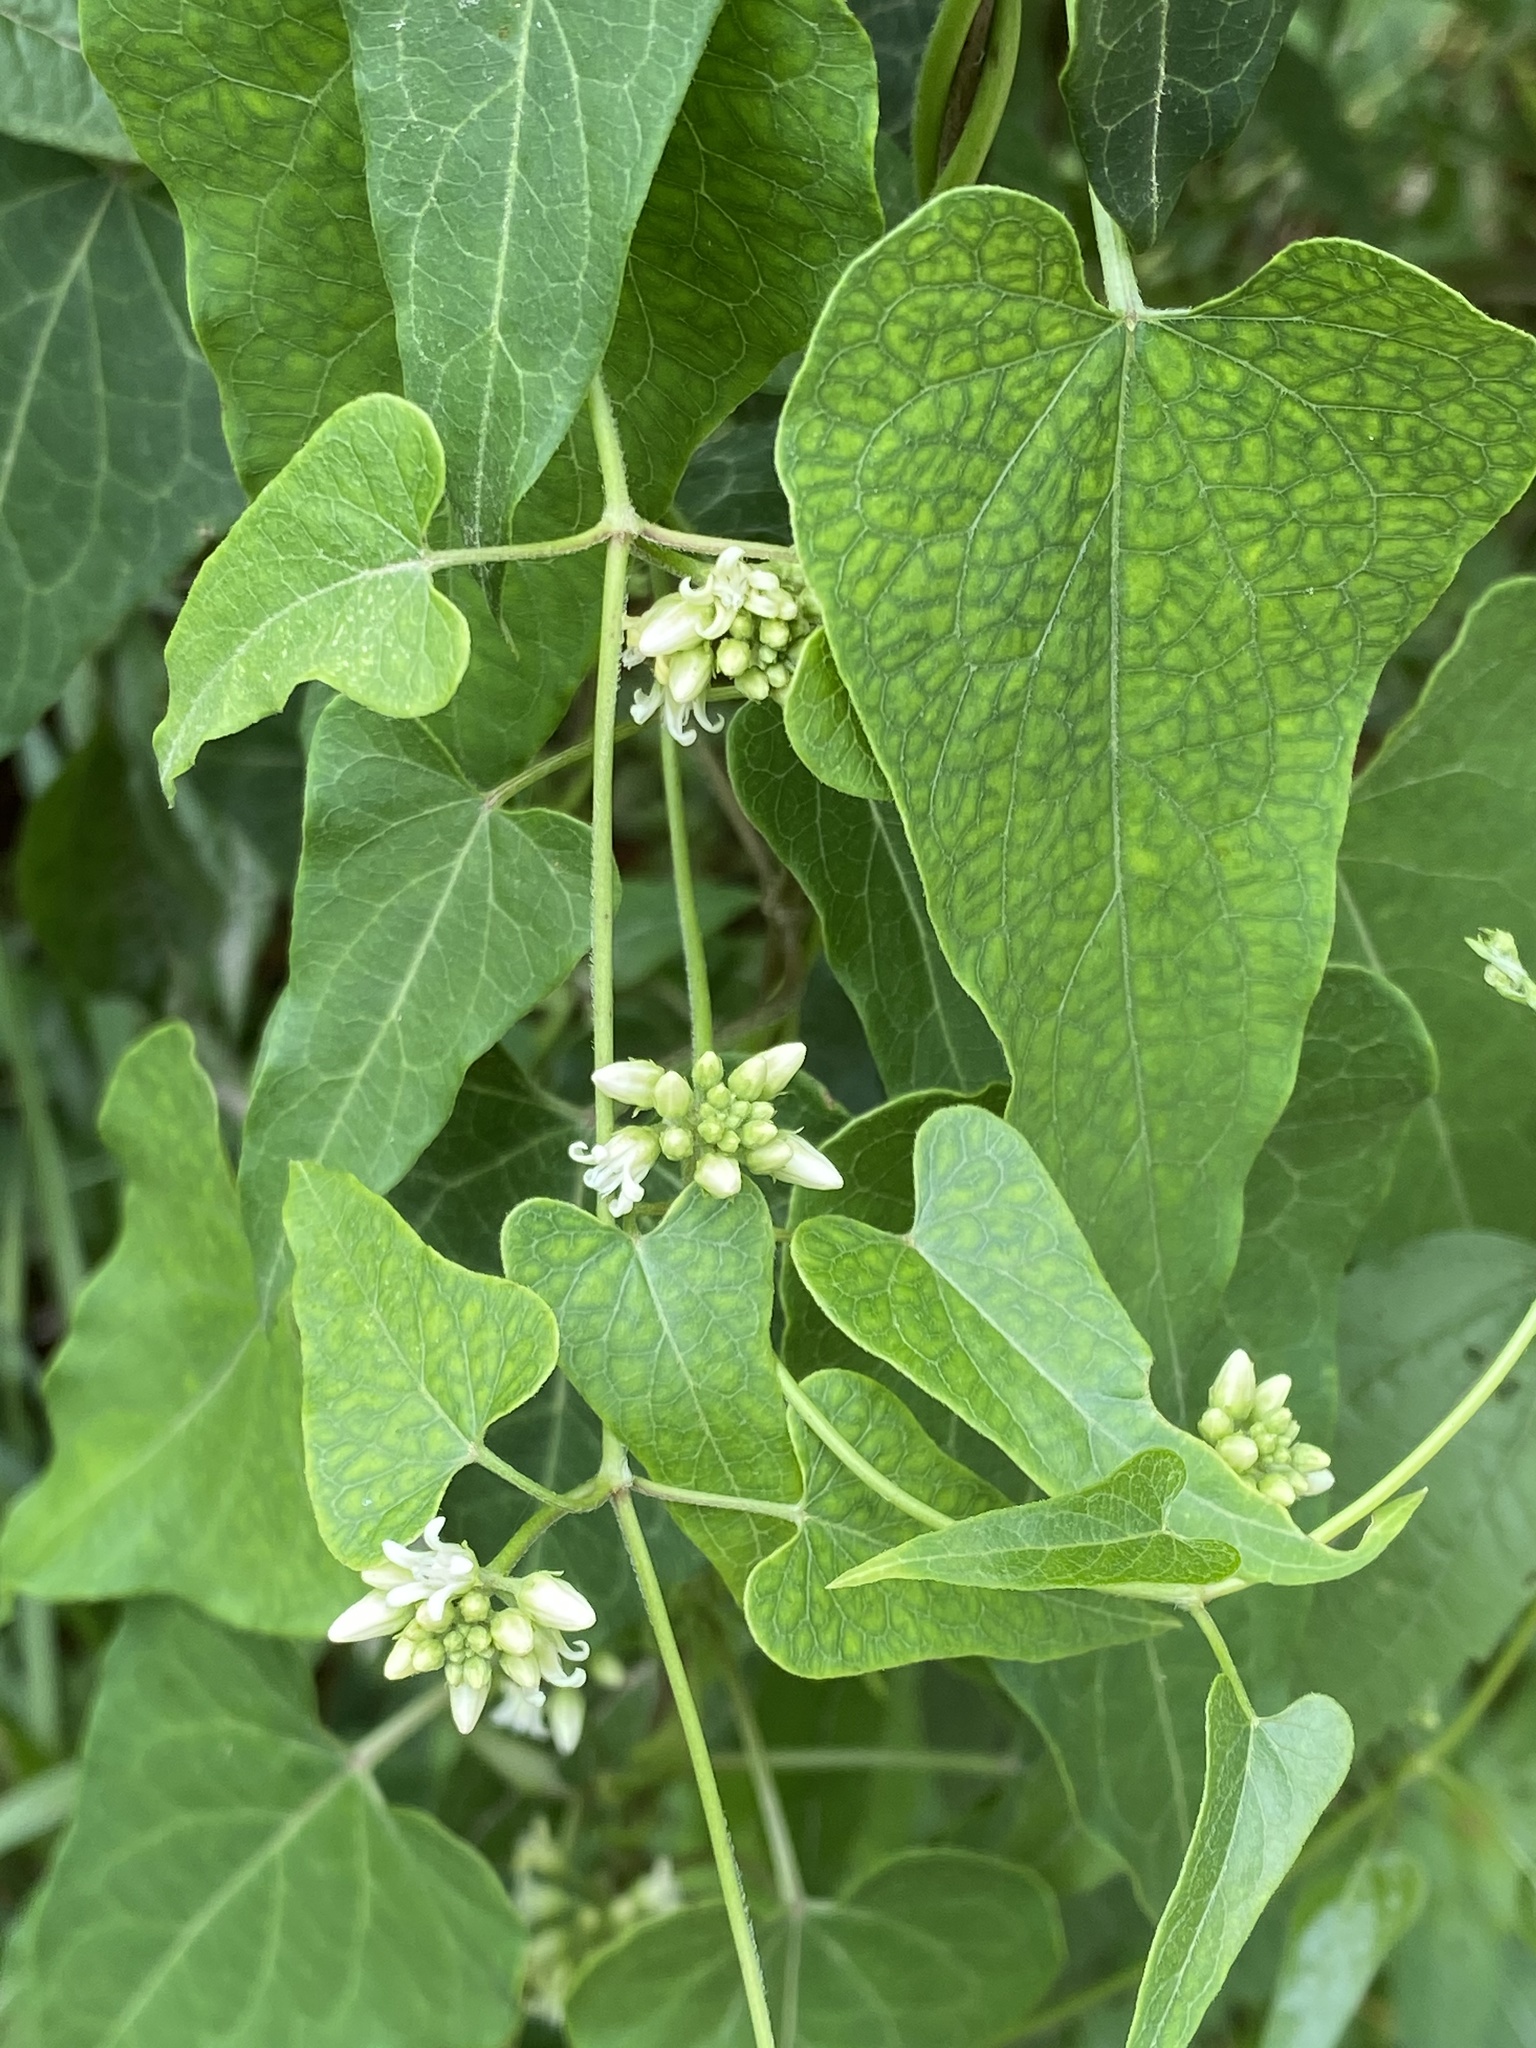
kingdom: Plantae
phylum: Tracheophyta
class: Magnoliopsida
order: Gentianales
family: Apocynaceae
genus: Cynanchum
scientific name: Cynanchum laeve
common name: Sandvine
